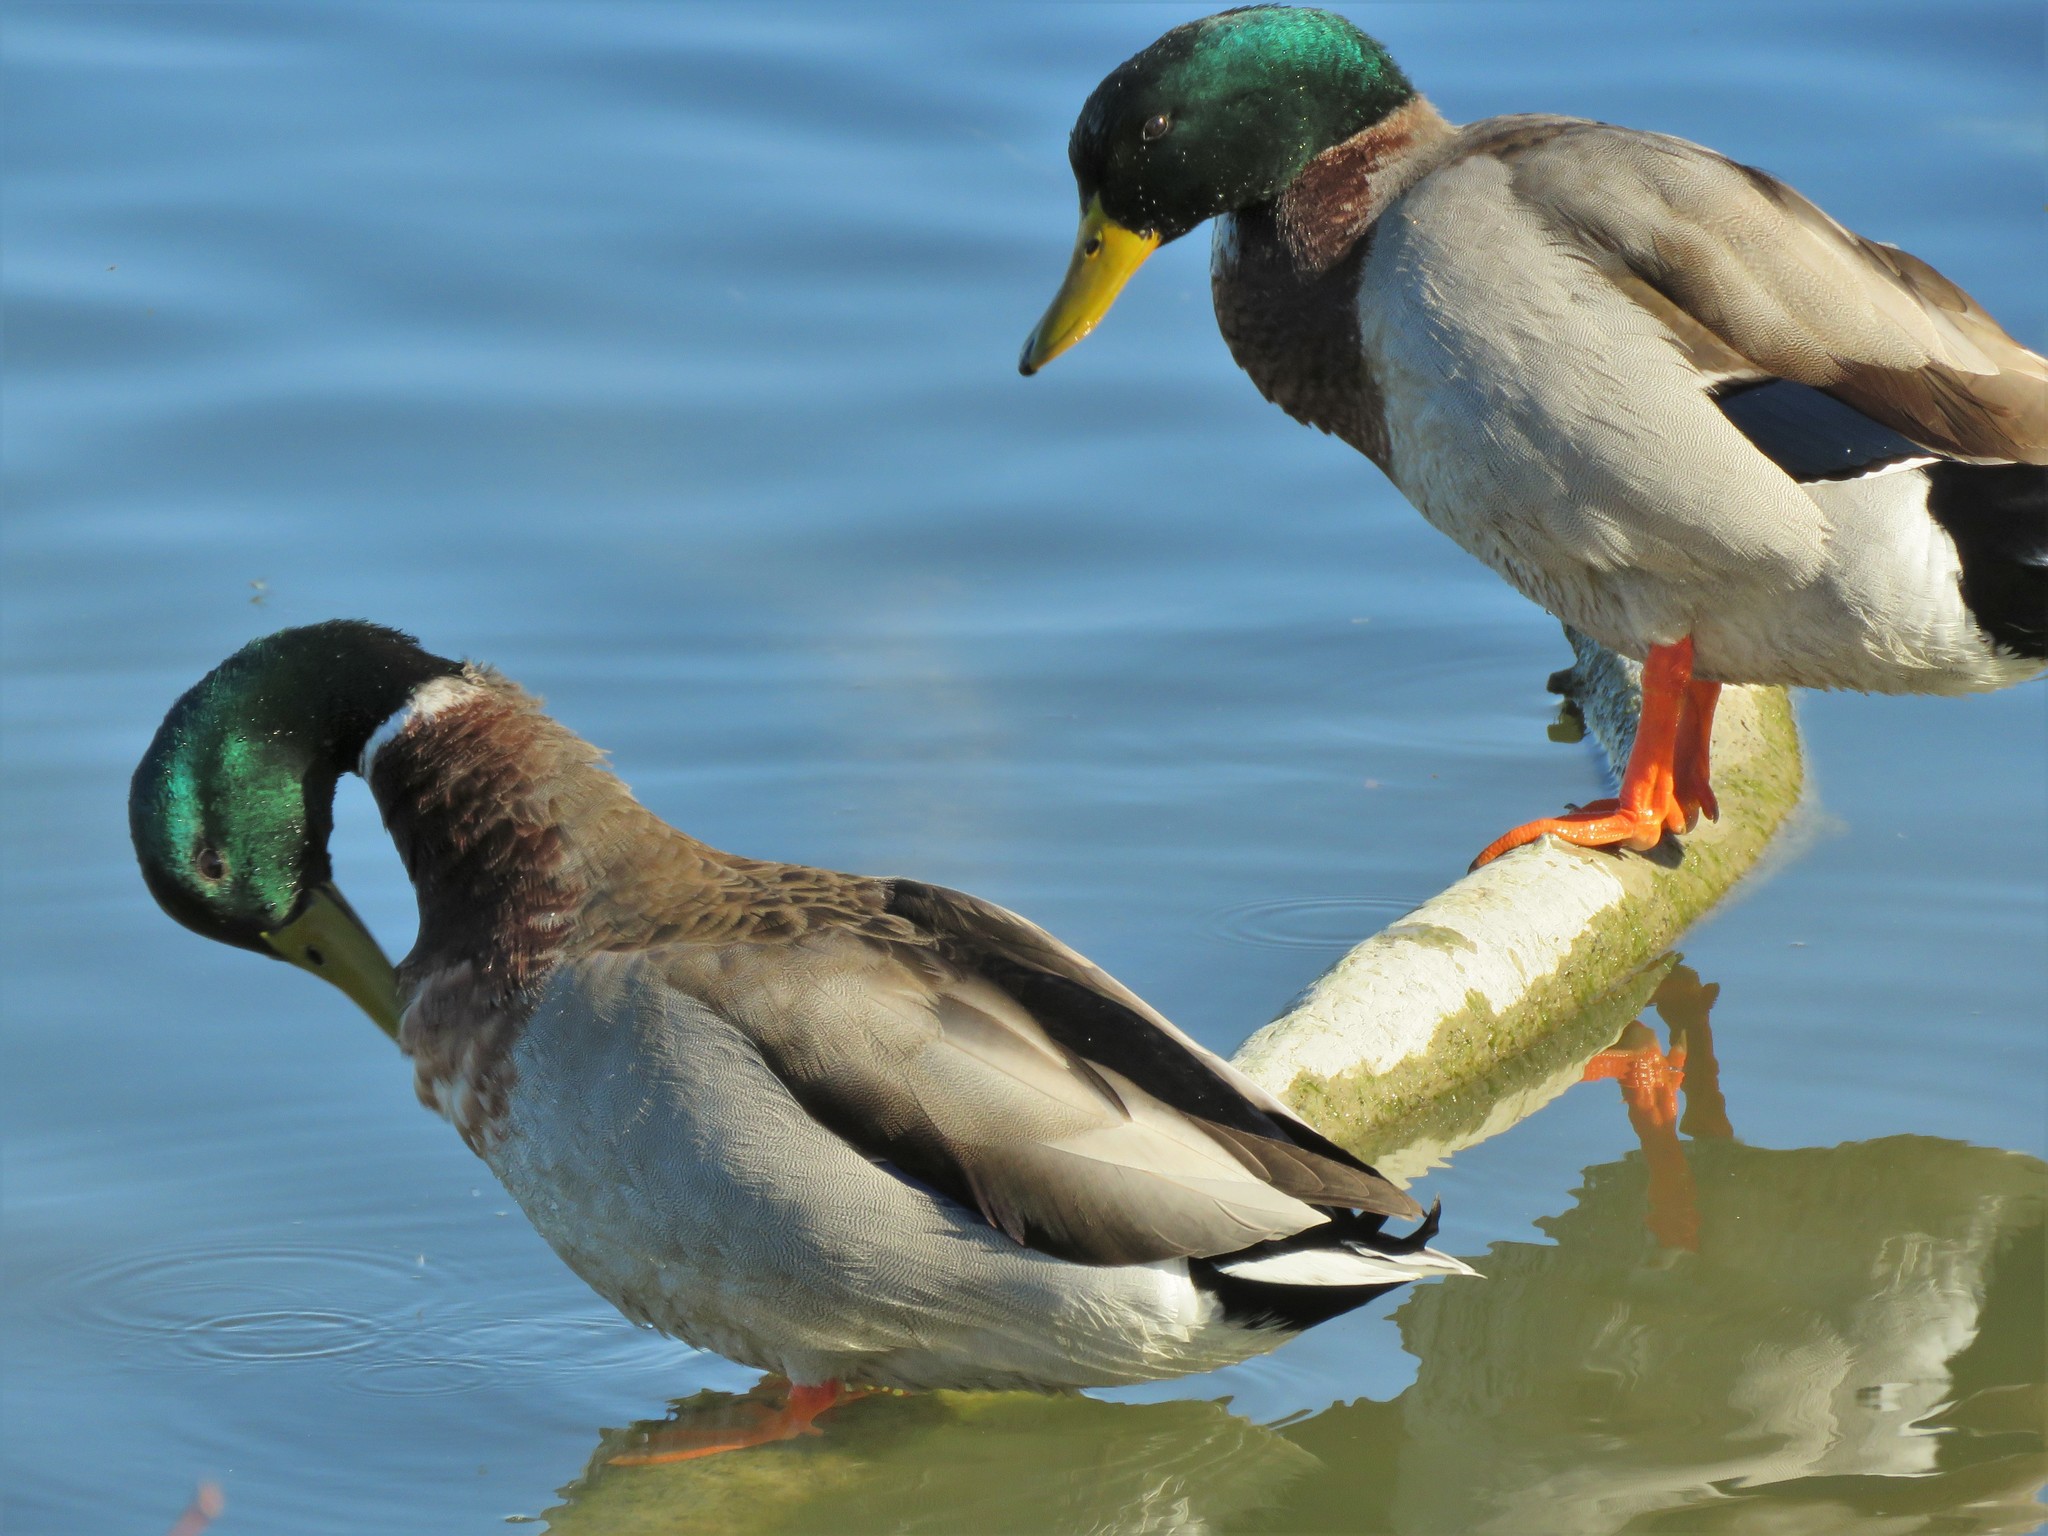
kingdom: Animalia
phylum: Chordata
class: Aves
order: Anseriformes
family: Anatidae
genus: Anas
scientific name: Anas platyrhynchos
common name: Mallard
